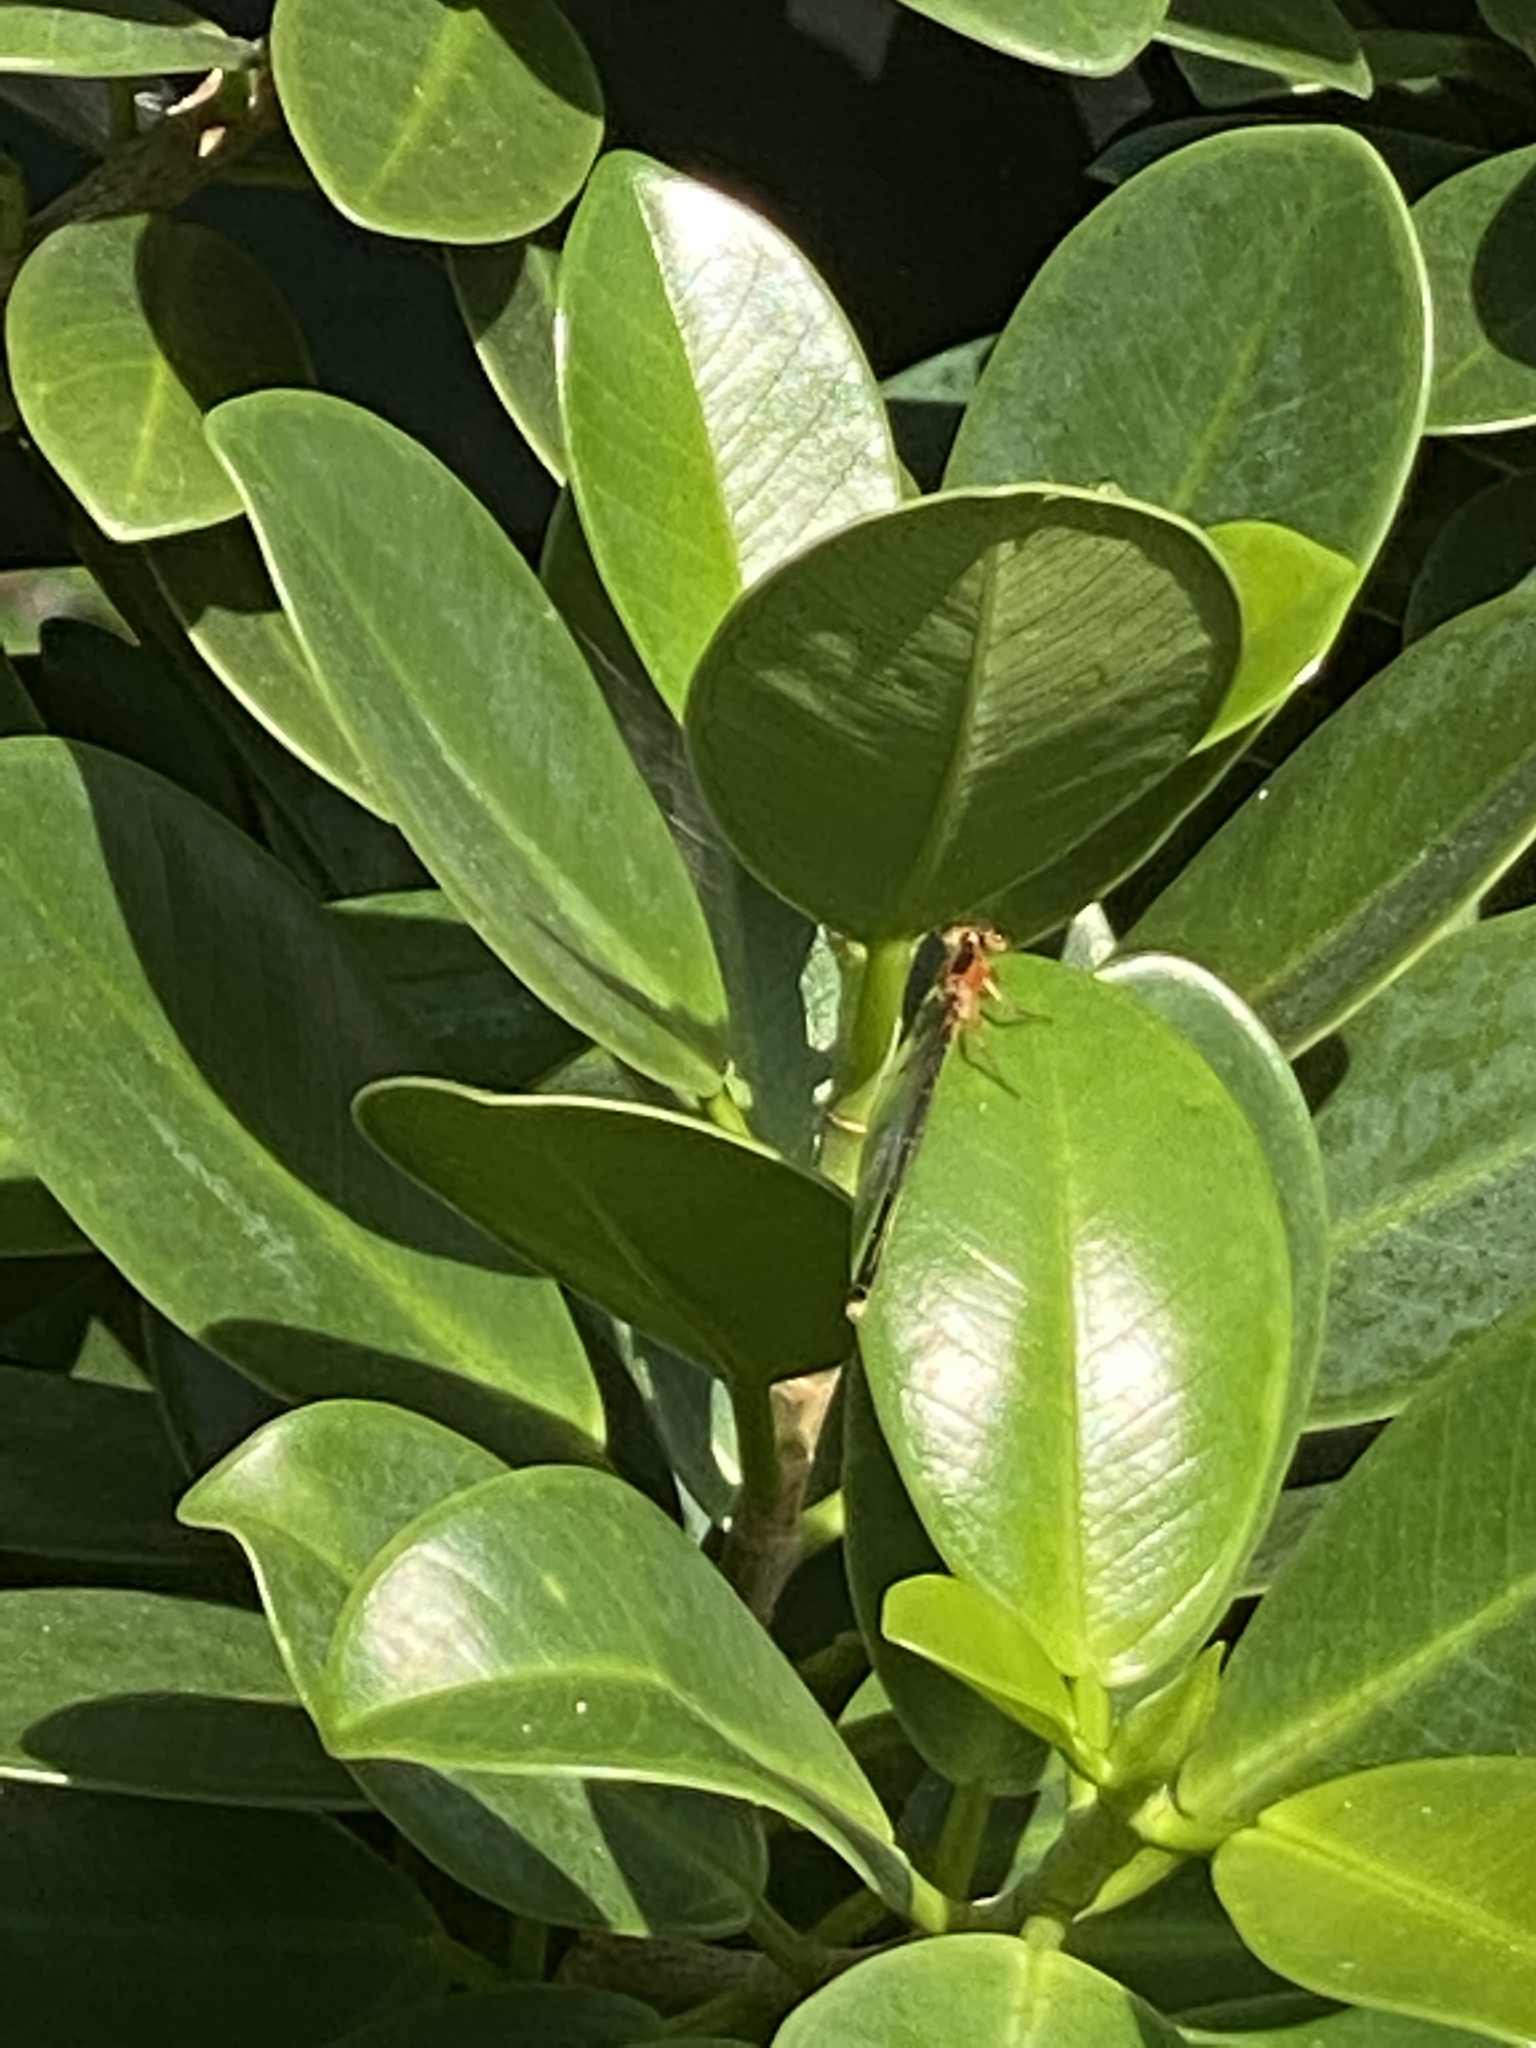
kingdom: Animalia
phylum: Arthropoda
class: Insecta
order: Odonata
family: Coenagrionidae
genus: Ischnura
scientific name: Ischnura ramburii
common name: Rambur's forktail
